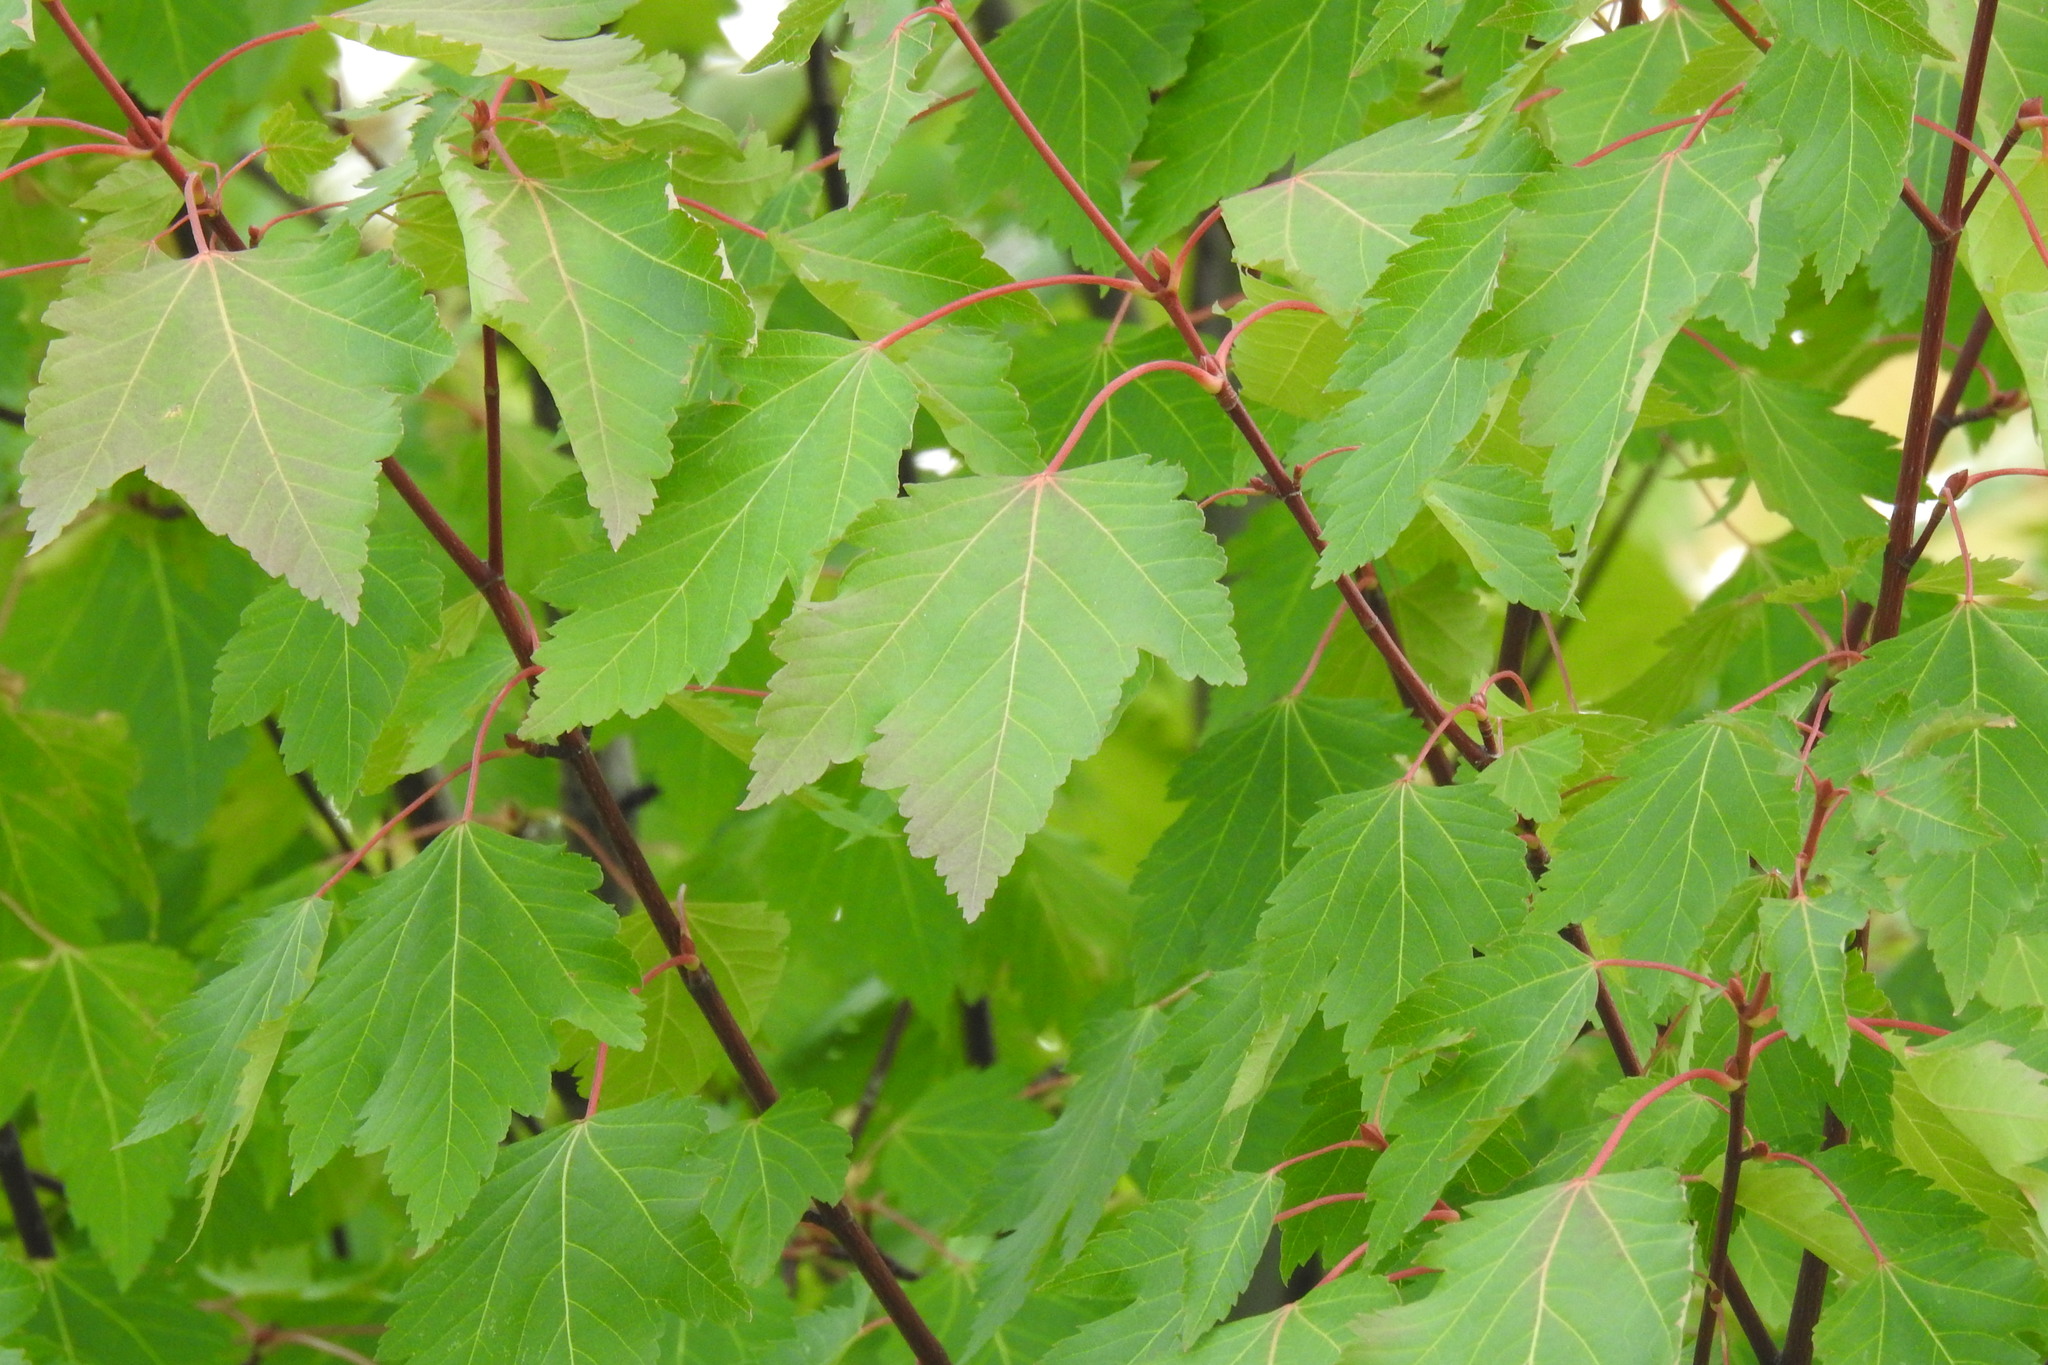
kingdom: Plantae
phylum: Tracheophyta
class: Magnoliopsida
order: Sapindales
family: Sapindaceae
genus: Acer
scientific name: Acer glabrum
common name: Rocky mountain maple
